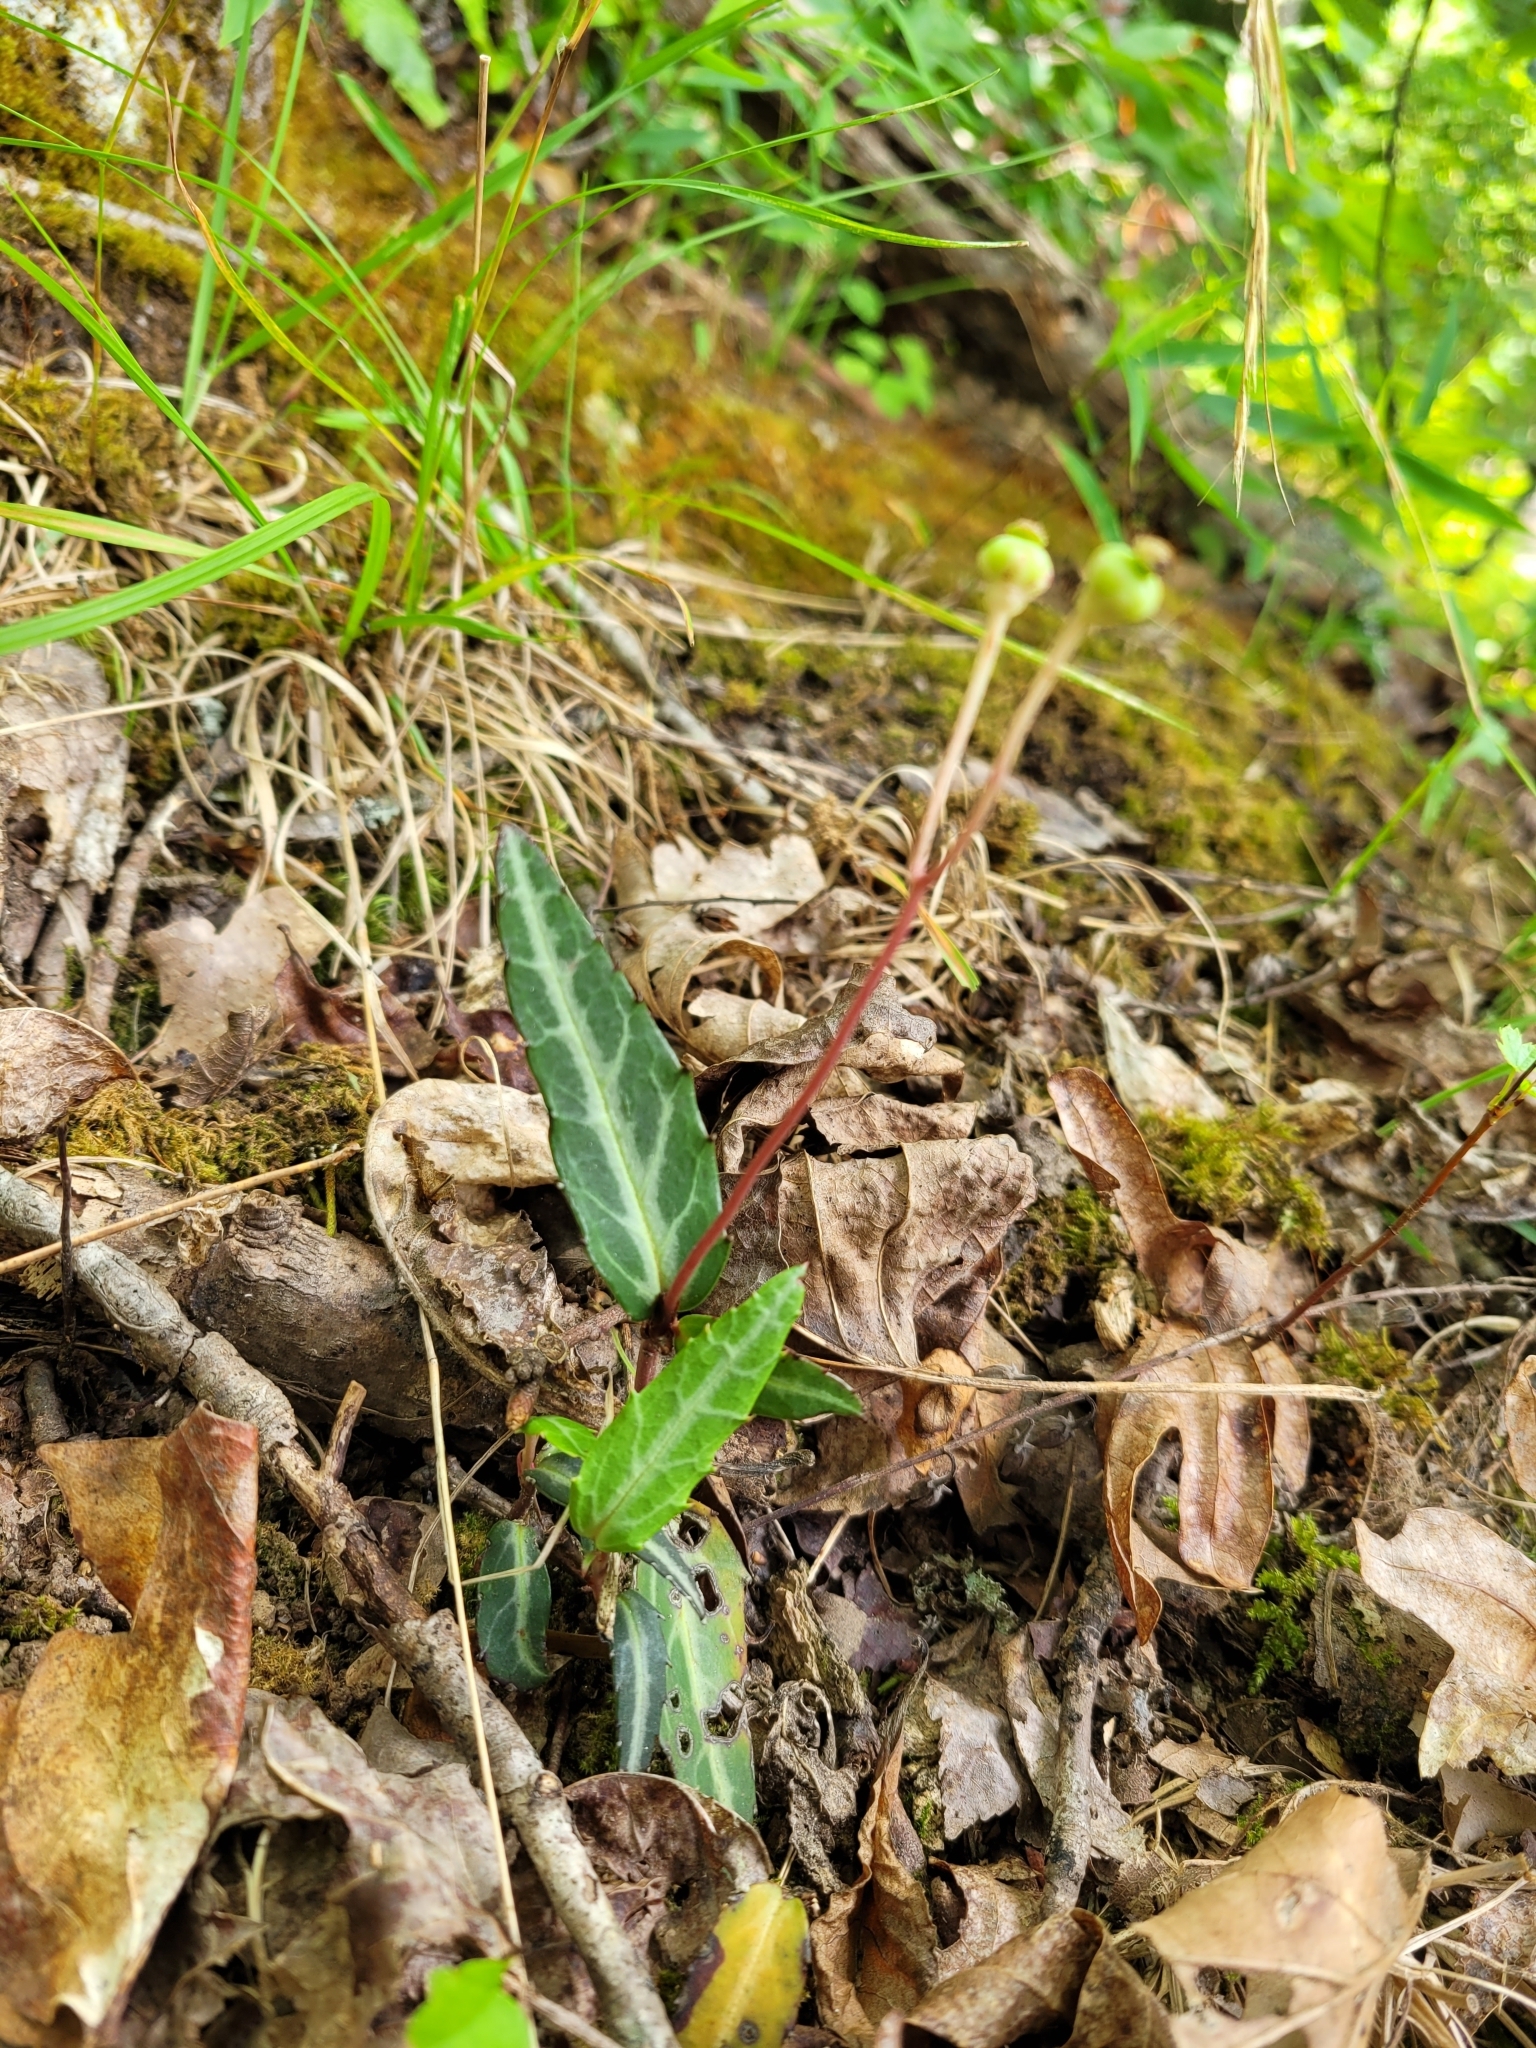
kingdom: Plantae
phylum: Tracheophyta
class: Magnoliopsida
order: Ericales
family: Ericaceae
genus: Chimaphila
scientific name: Chimaphila maculata
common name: Spotted pipsissewa
